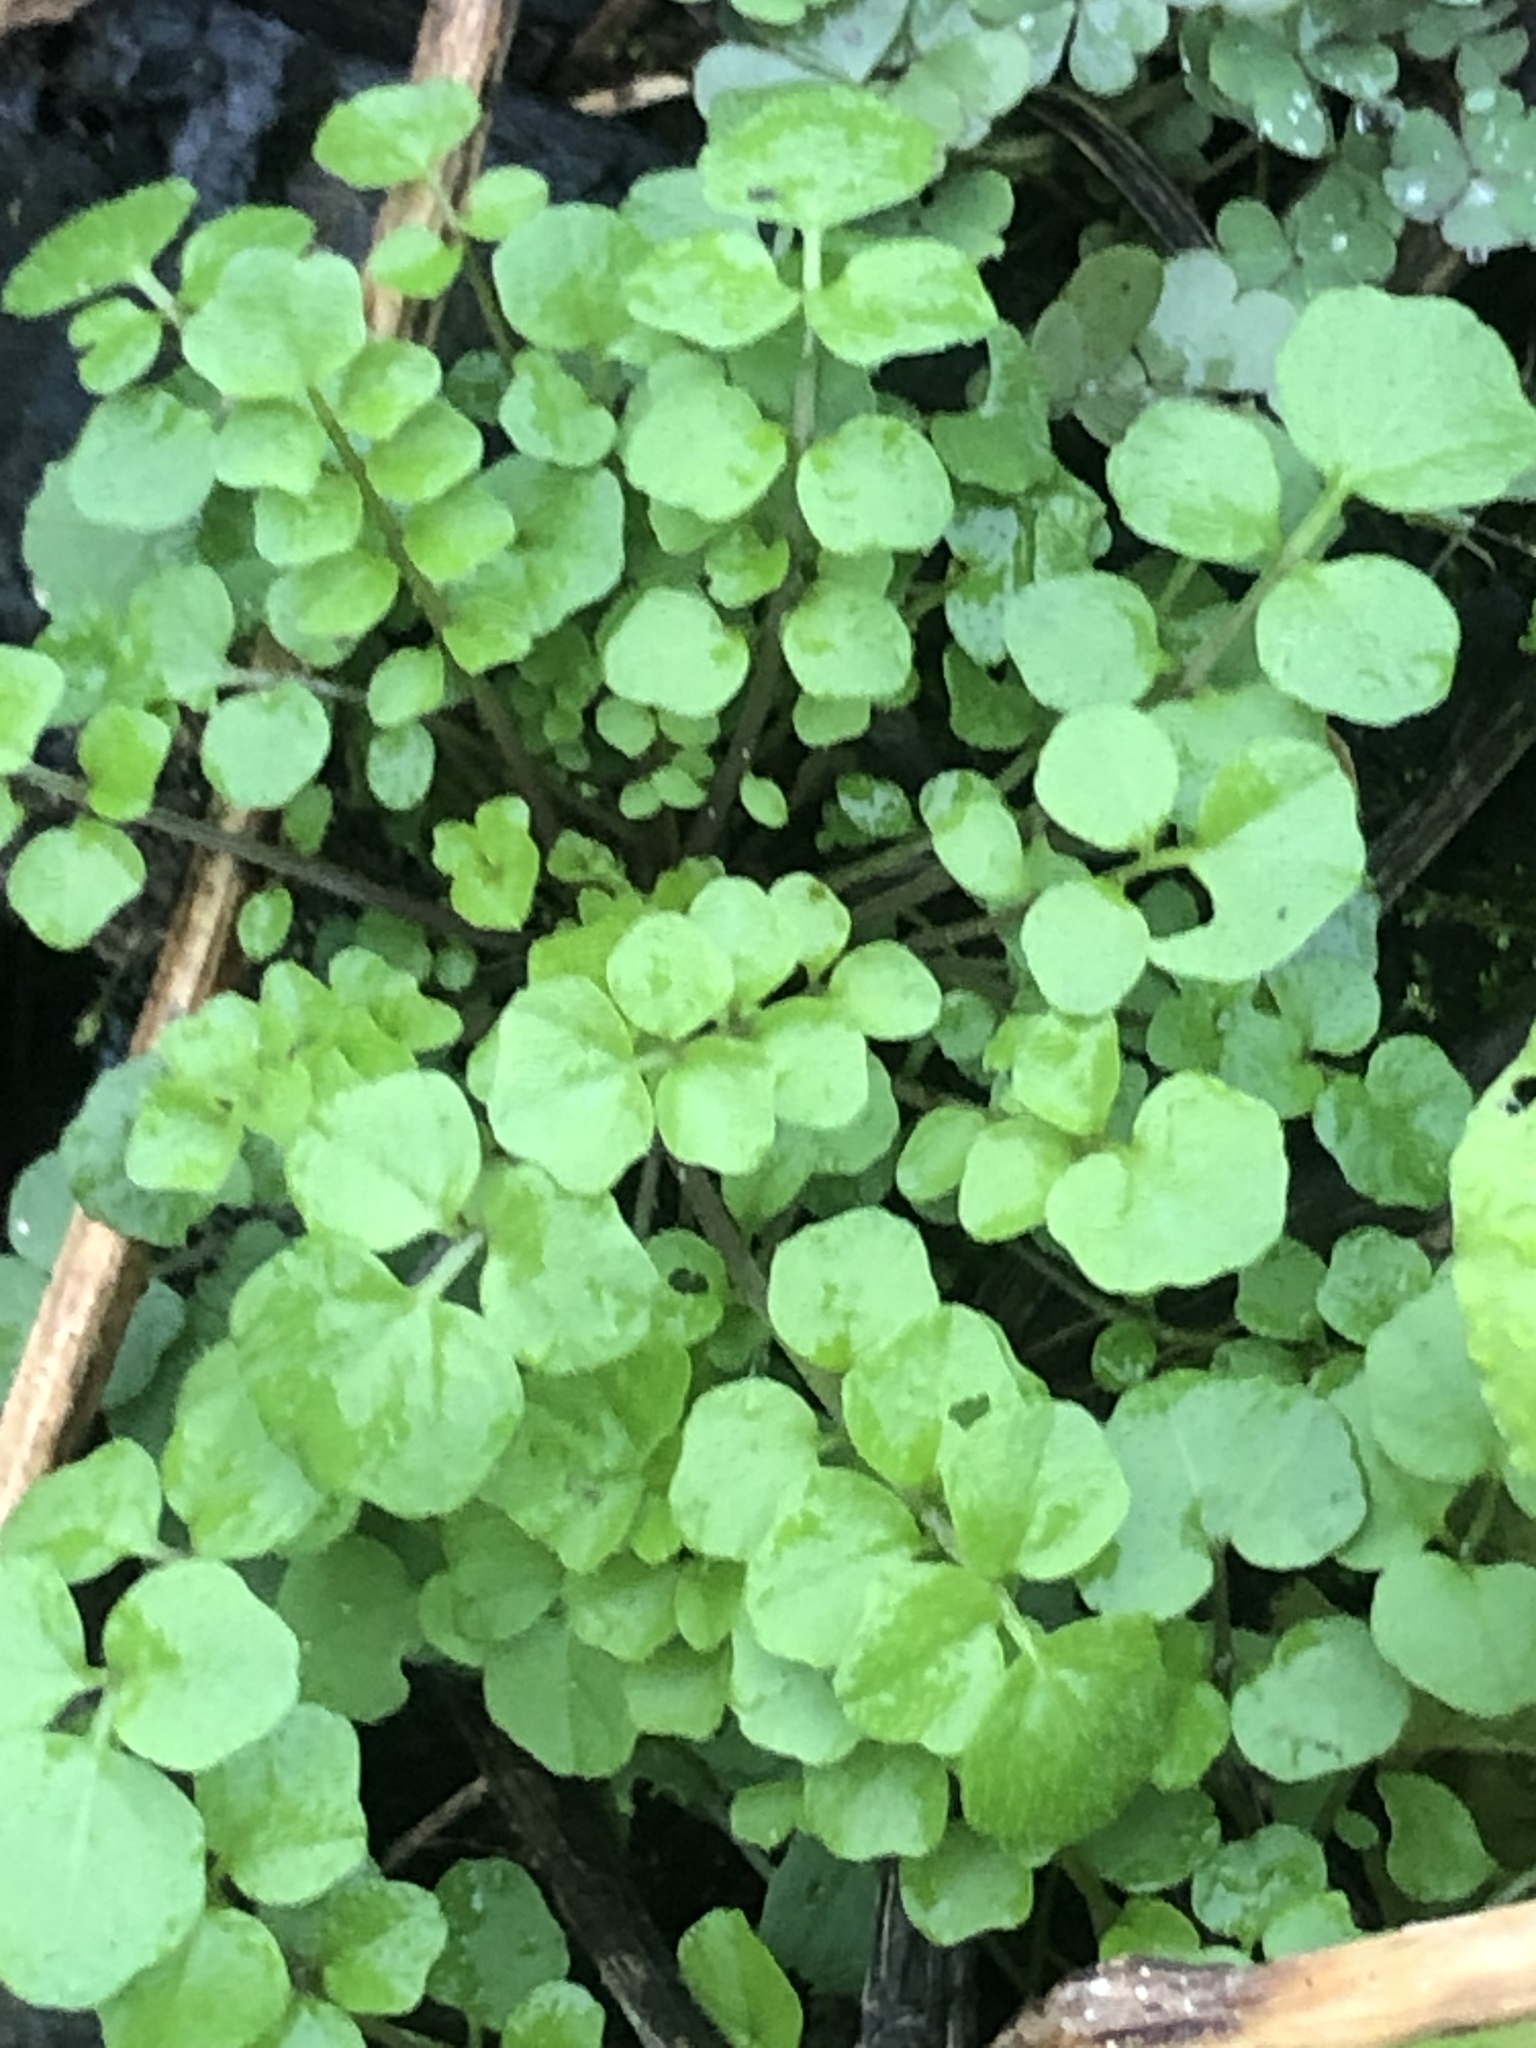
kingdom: Plantae
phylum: Tracheophyta
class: Magnoliopsida
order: Brassicales
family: Brassicaceae
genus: Cardamine
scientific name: Cardamine hirsuta
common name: Hairy bittercress
